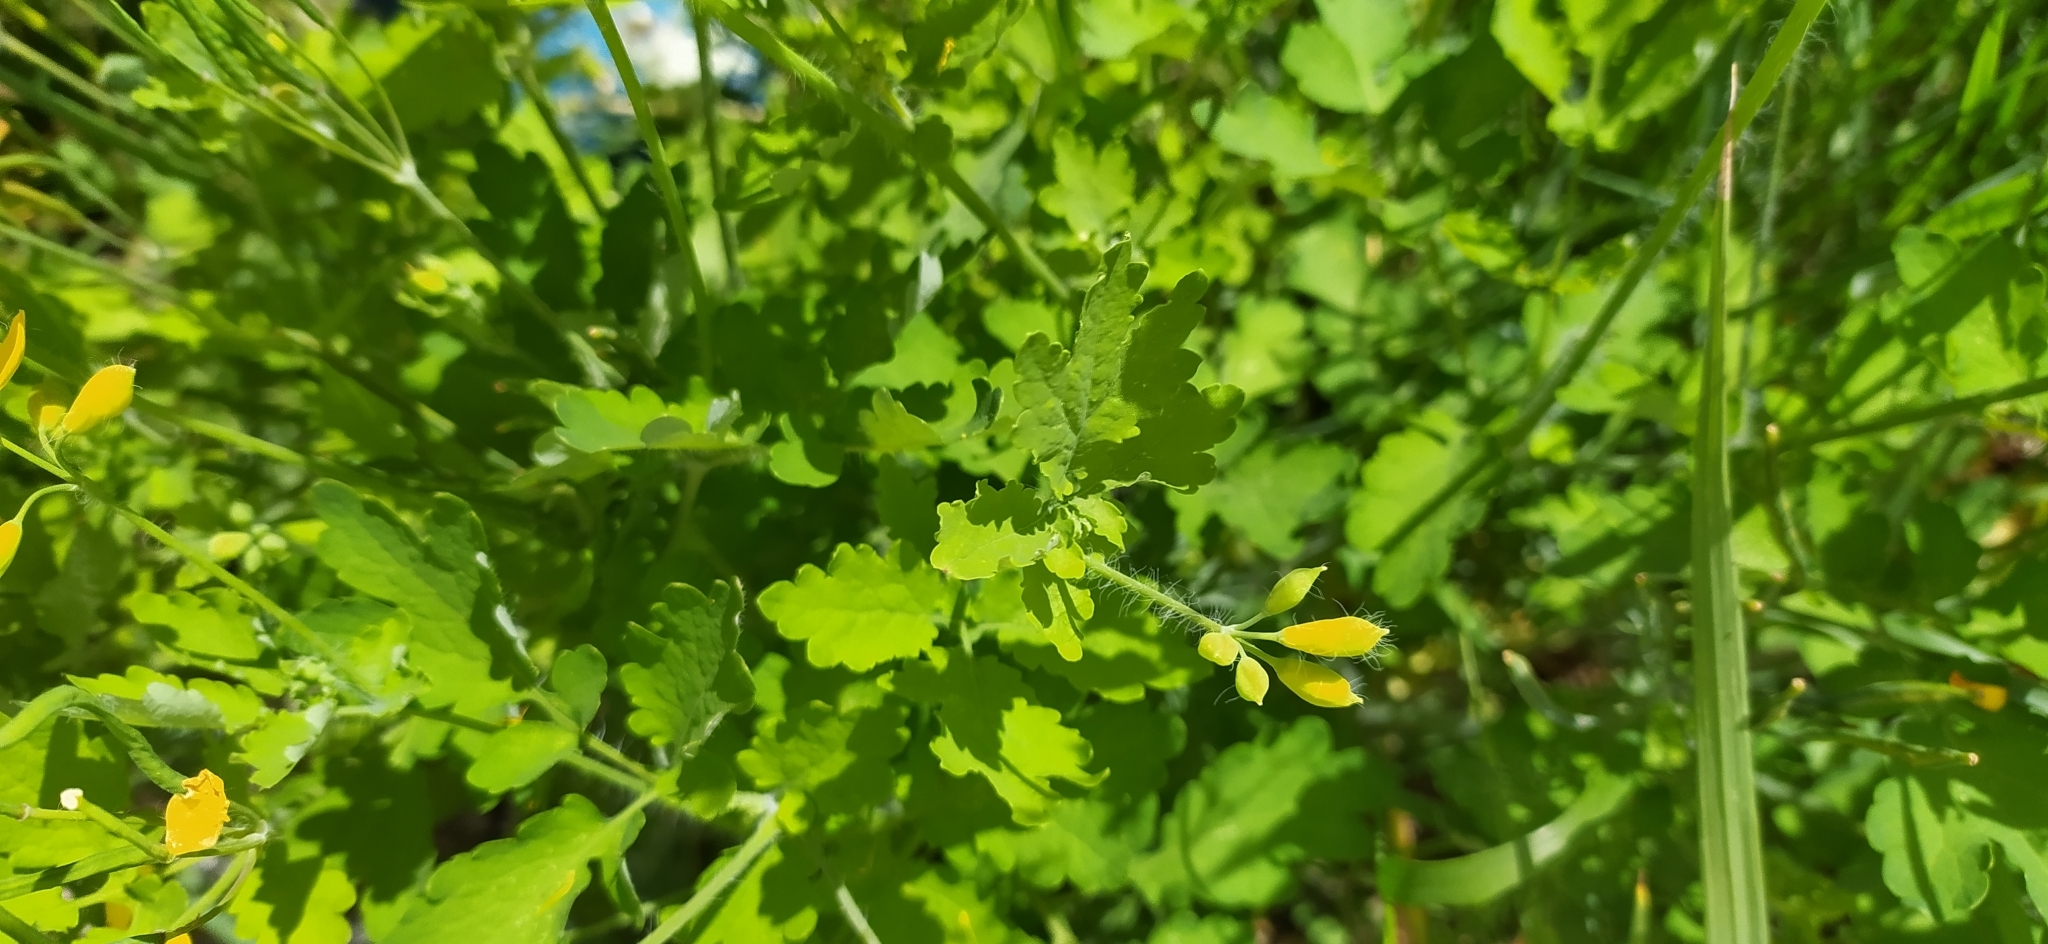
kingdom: Plantae
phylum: Tracheophyta
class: Magnoliopsida
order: Ranunculales
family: Papaveraceae
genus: Chelidonium
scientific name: Chelidonium majus
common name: Greater celandine
